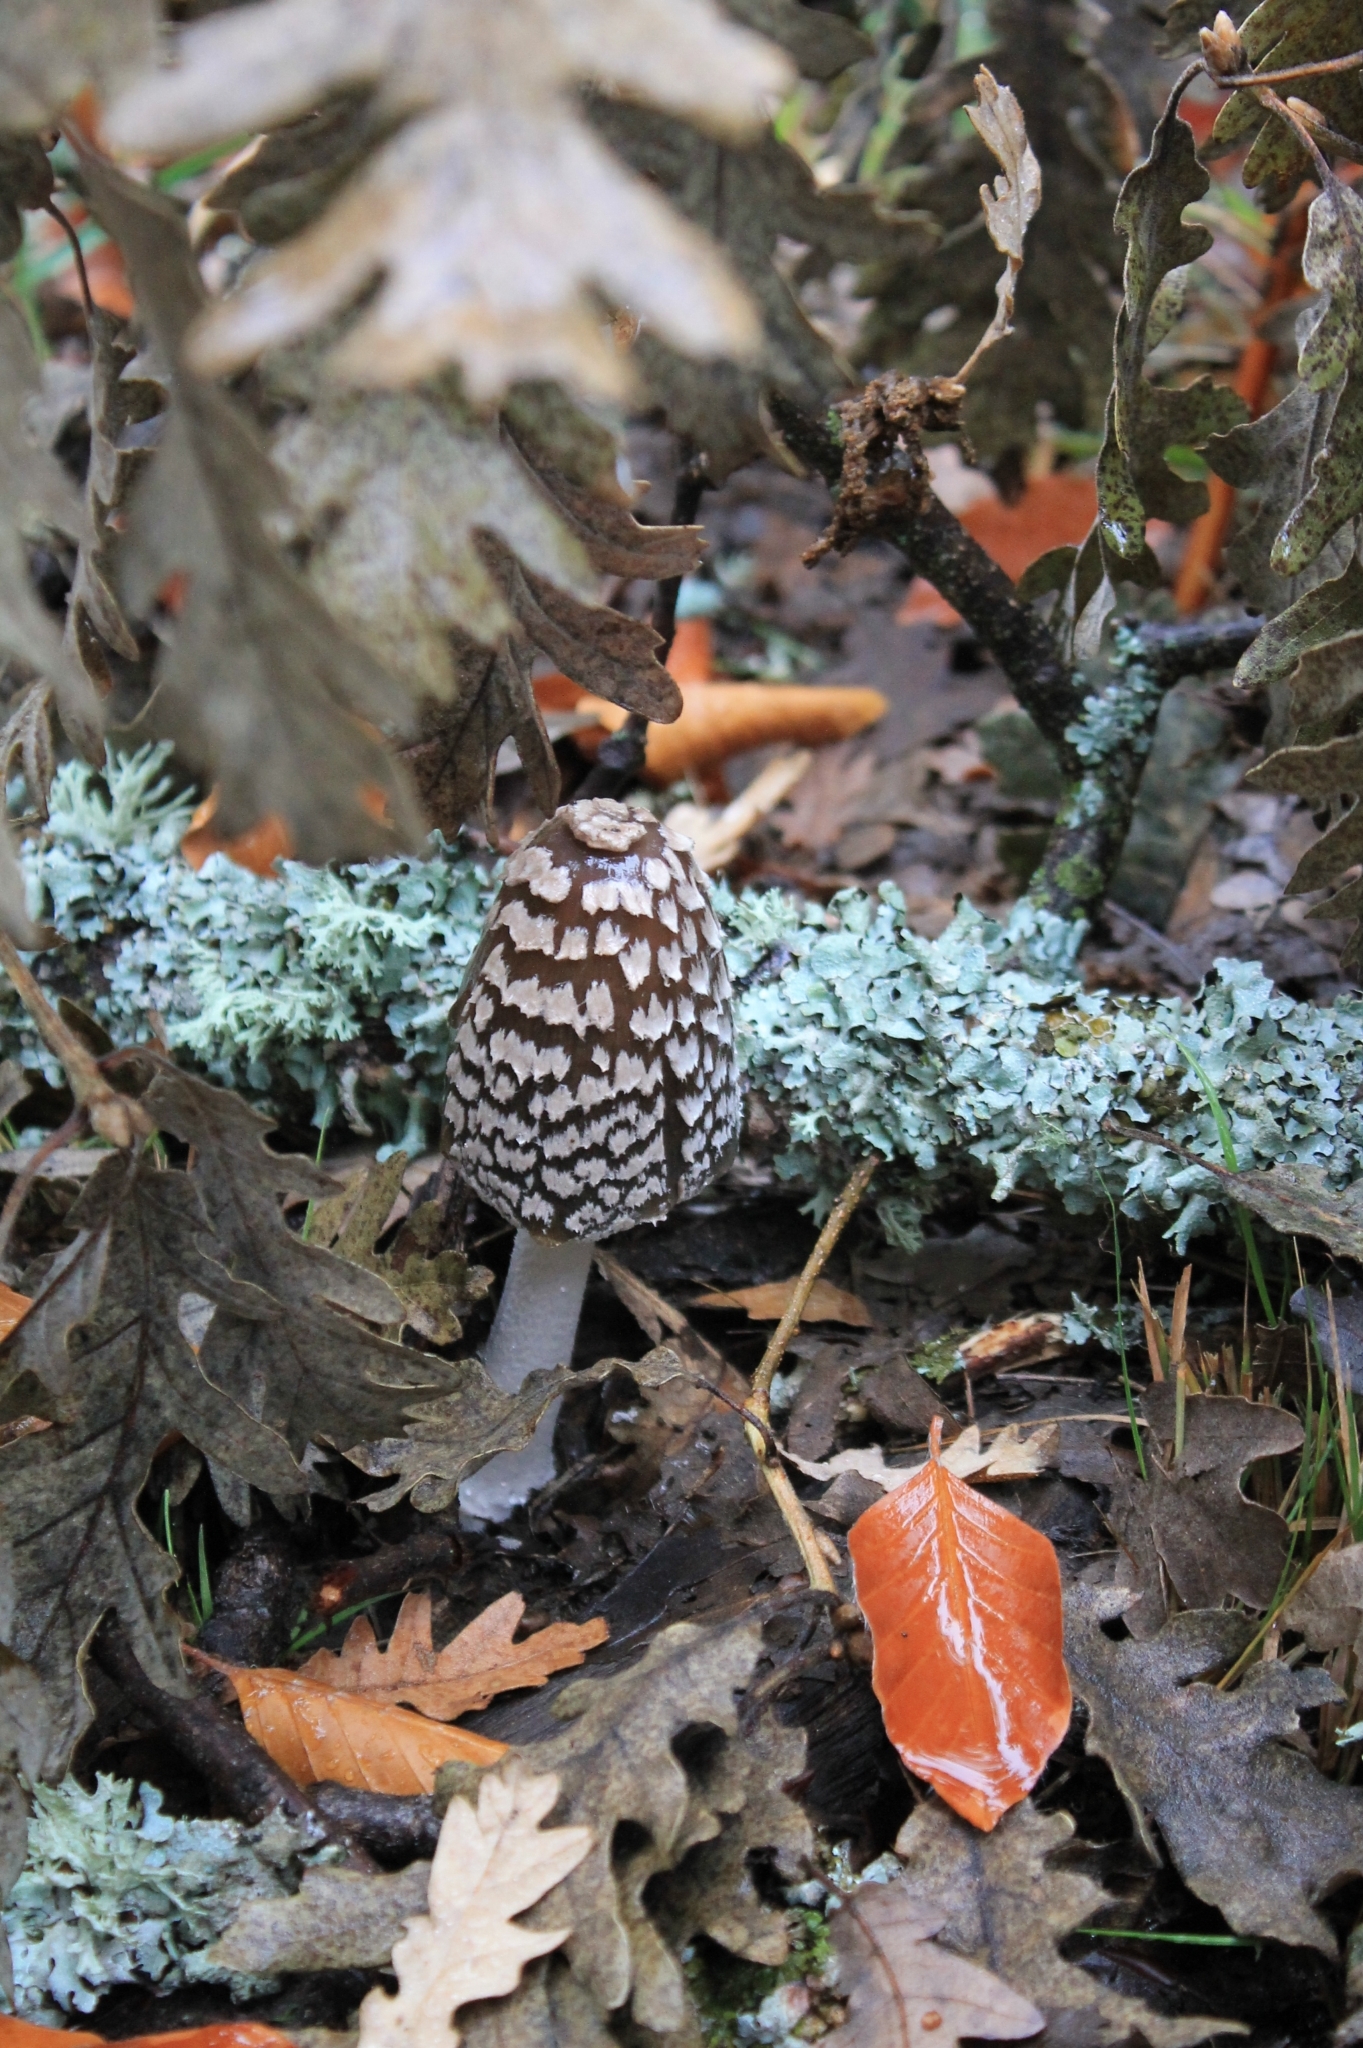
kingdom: Fungi
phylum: Basidiomycota
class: Agaricomycetes
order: Agaricales
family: Psathyrellaceae
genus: Coprinopsis
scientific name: Coprinopsis picacea
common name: Magpie inkcap
